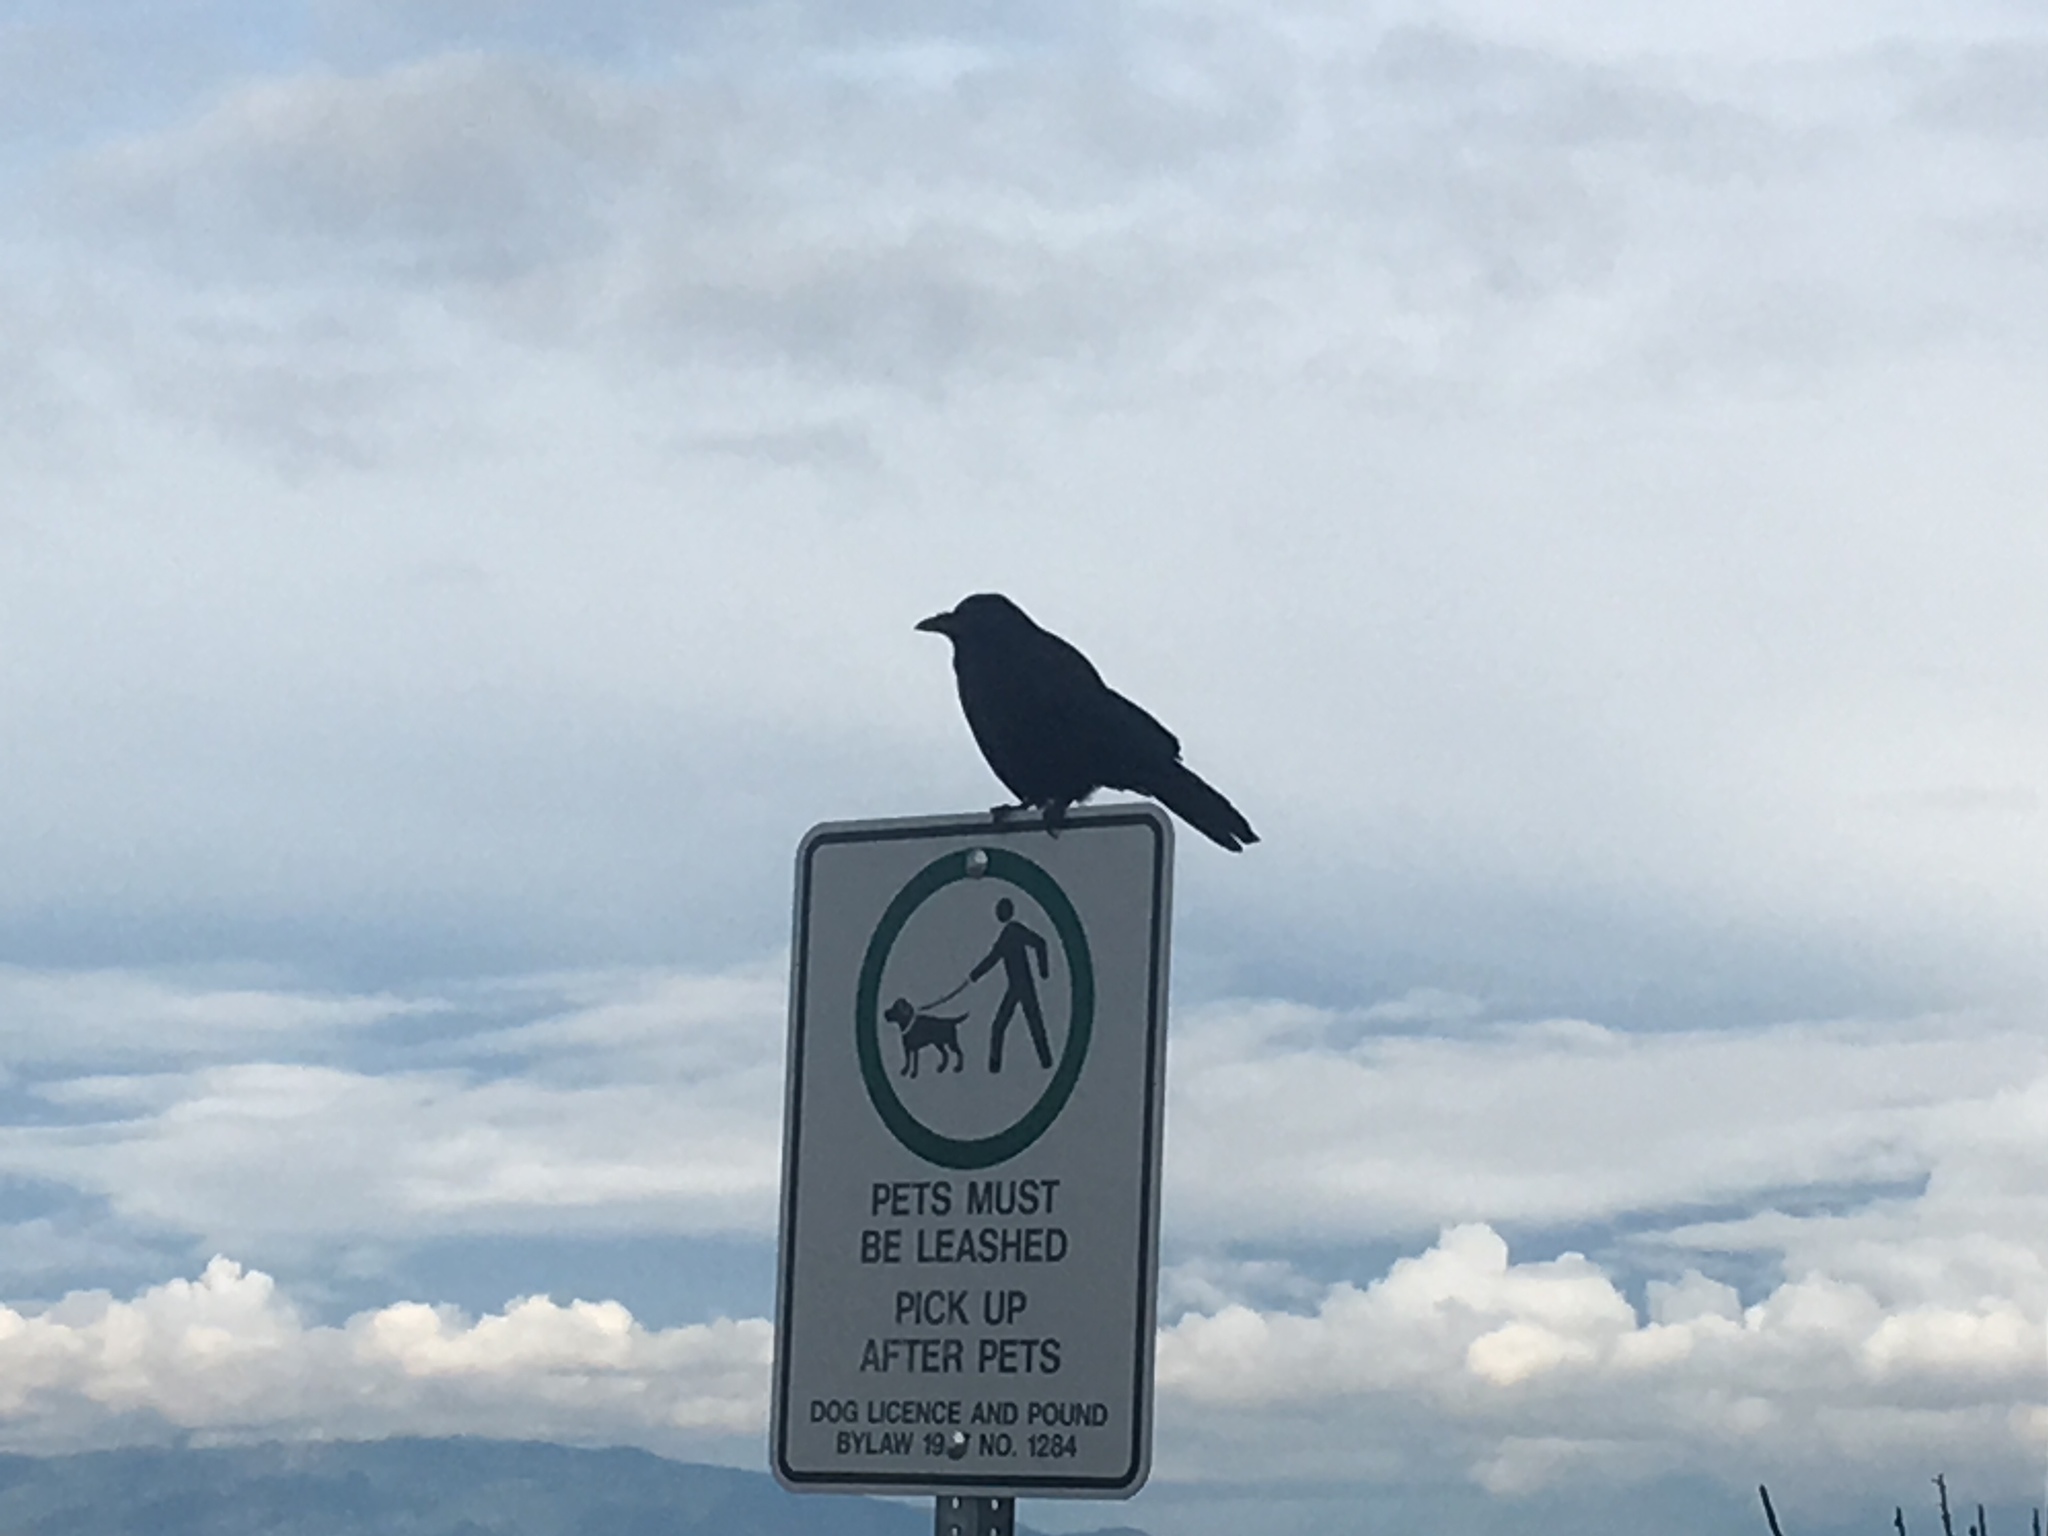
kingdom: Animalia
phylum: Chordata
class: Aves
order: Passeriformes
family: Corvidae
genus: Corvus
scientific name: Corvus brachyrhynchos
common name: American crow
